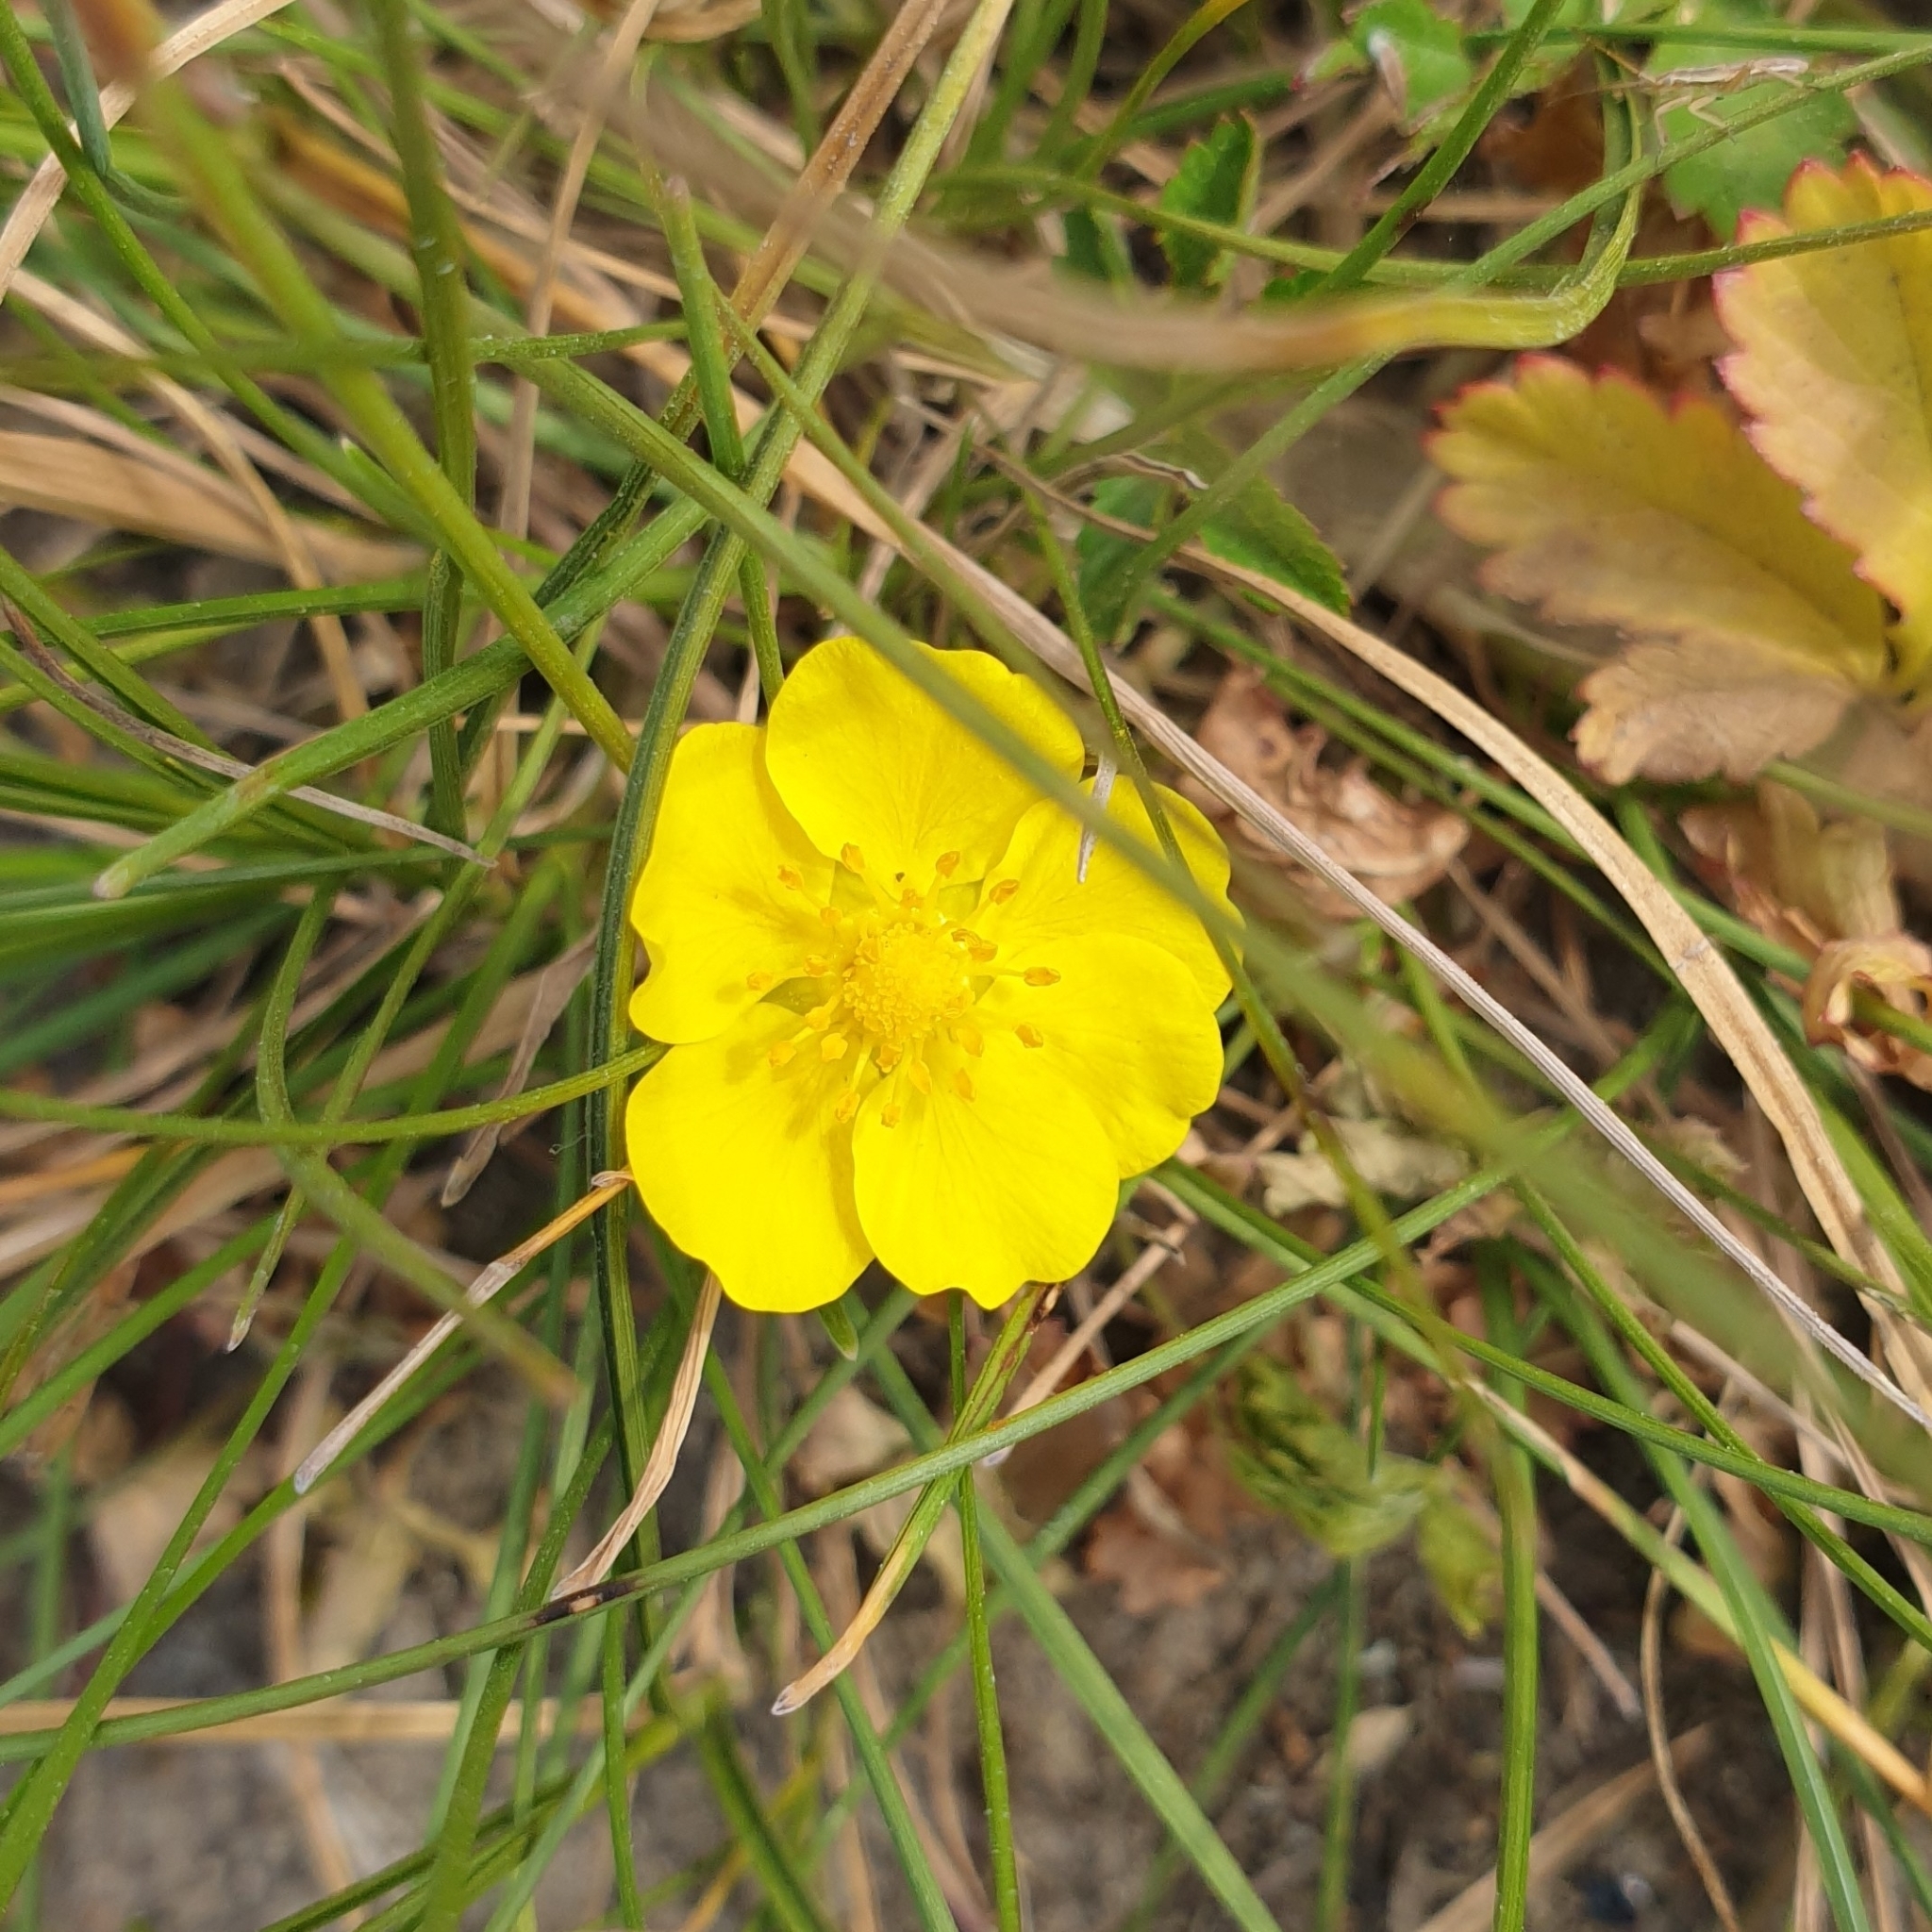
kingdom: Plantae
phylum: Tracheophyta
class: Magnoliopsida
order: Rosales
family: Rosaceae
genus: Potentilla
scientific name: Potentilla reptans
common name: Creeping cinquefoil
